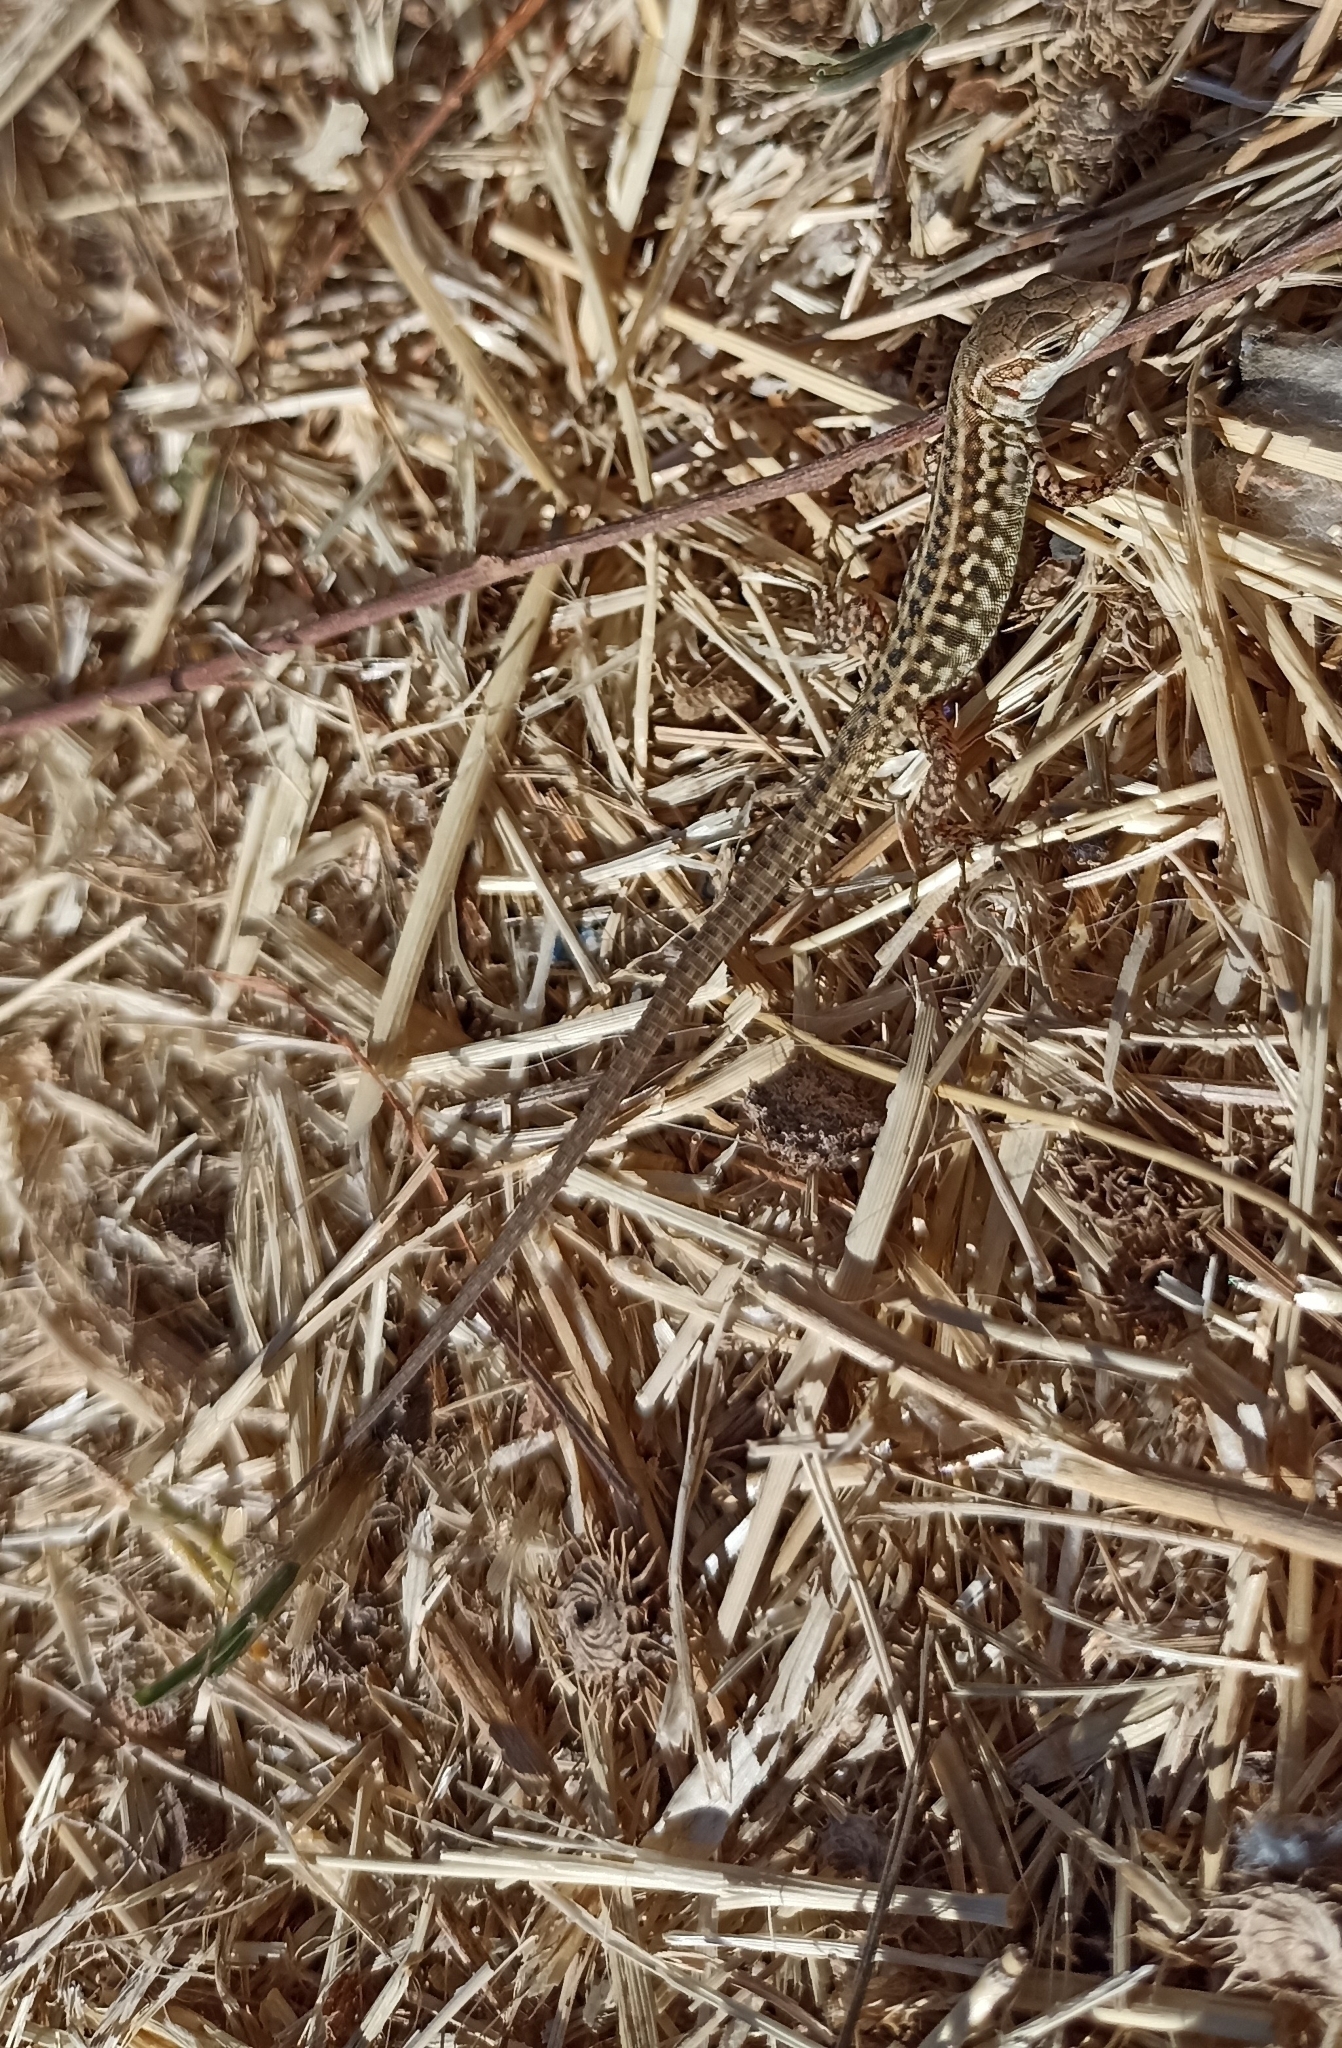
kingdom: Animalia
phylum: Chordata
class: Squamata
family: Lacertidae
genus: Podarcis
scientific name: Podarcis siculus
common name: Italian wall lizard
